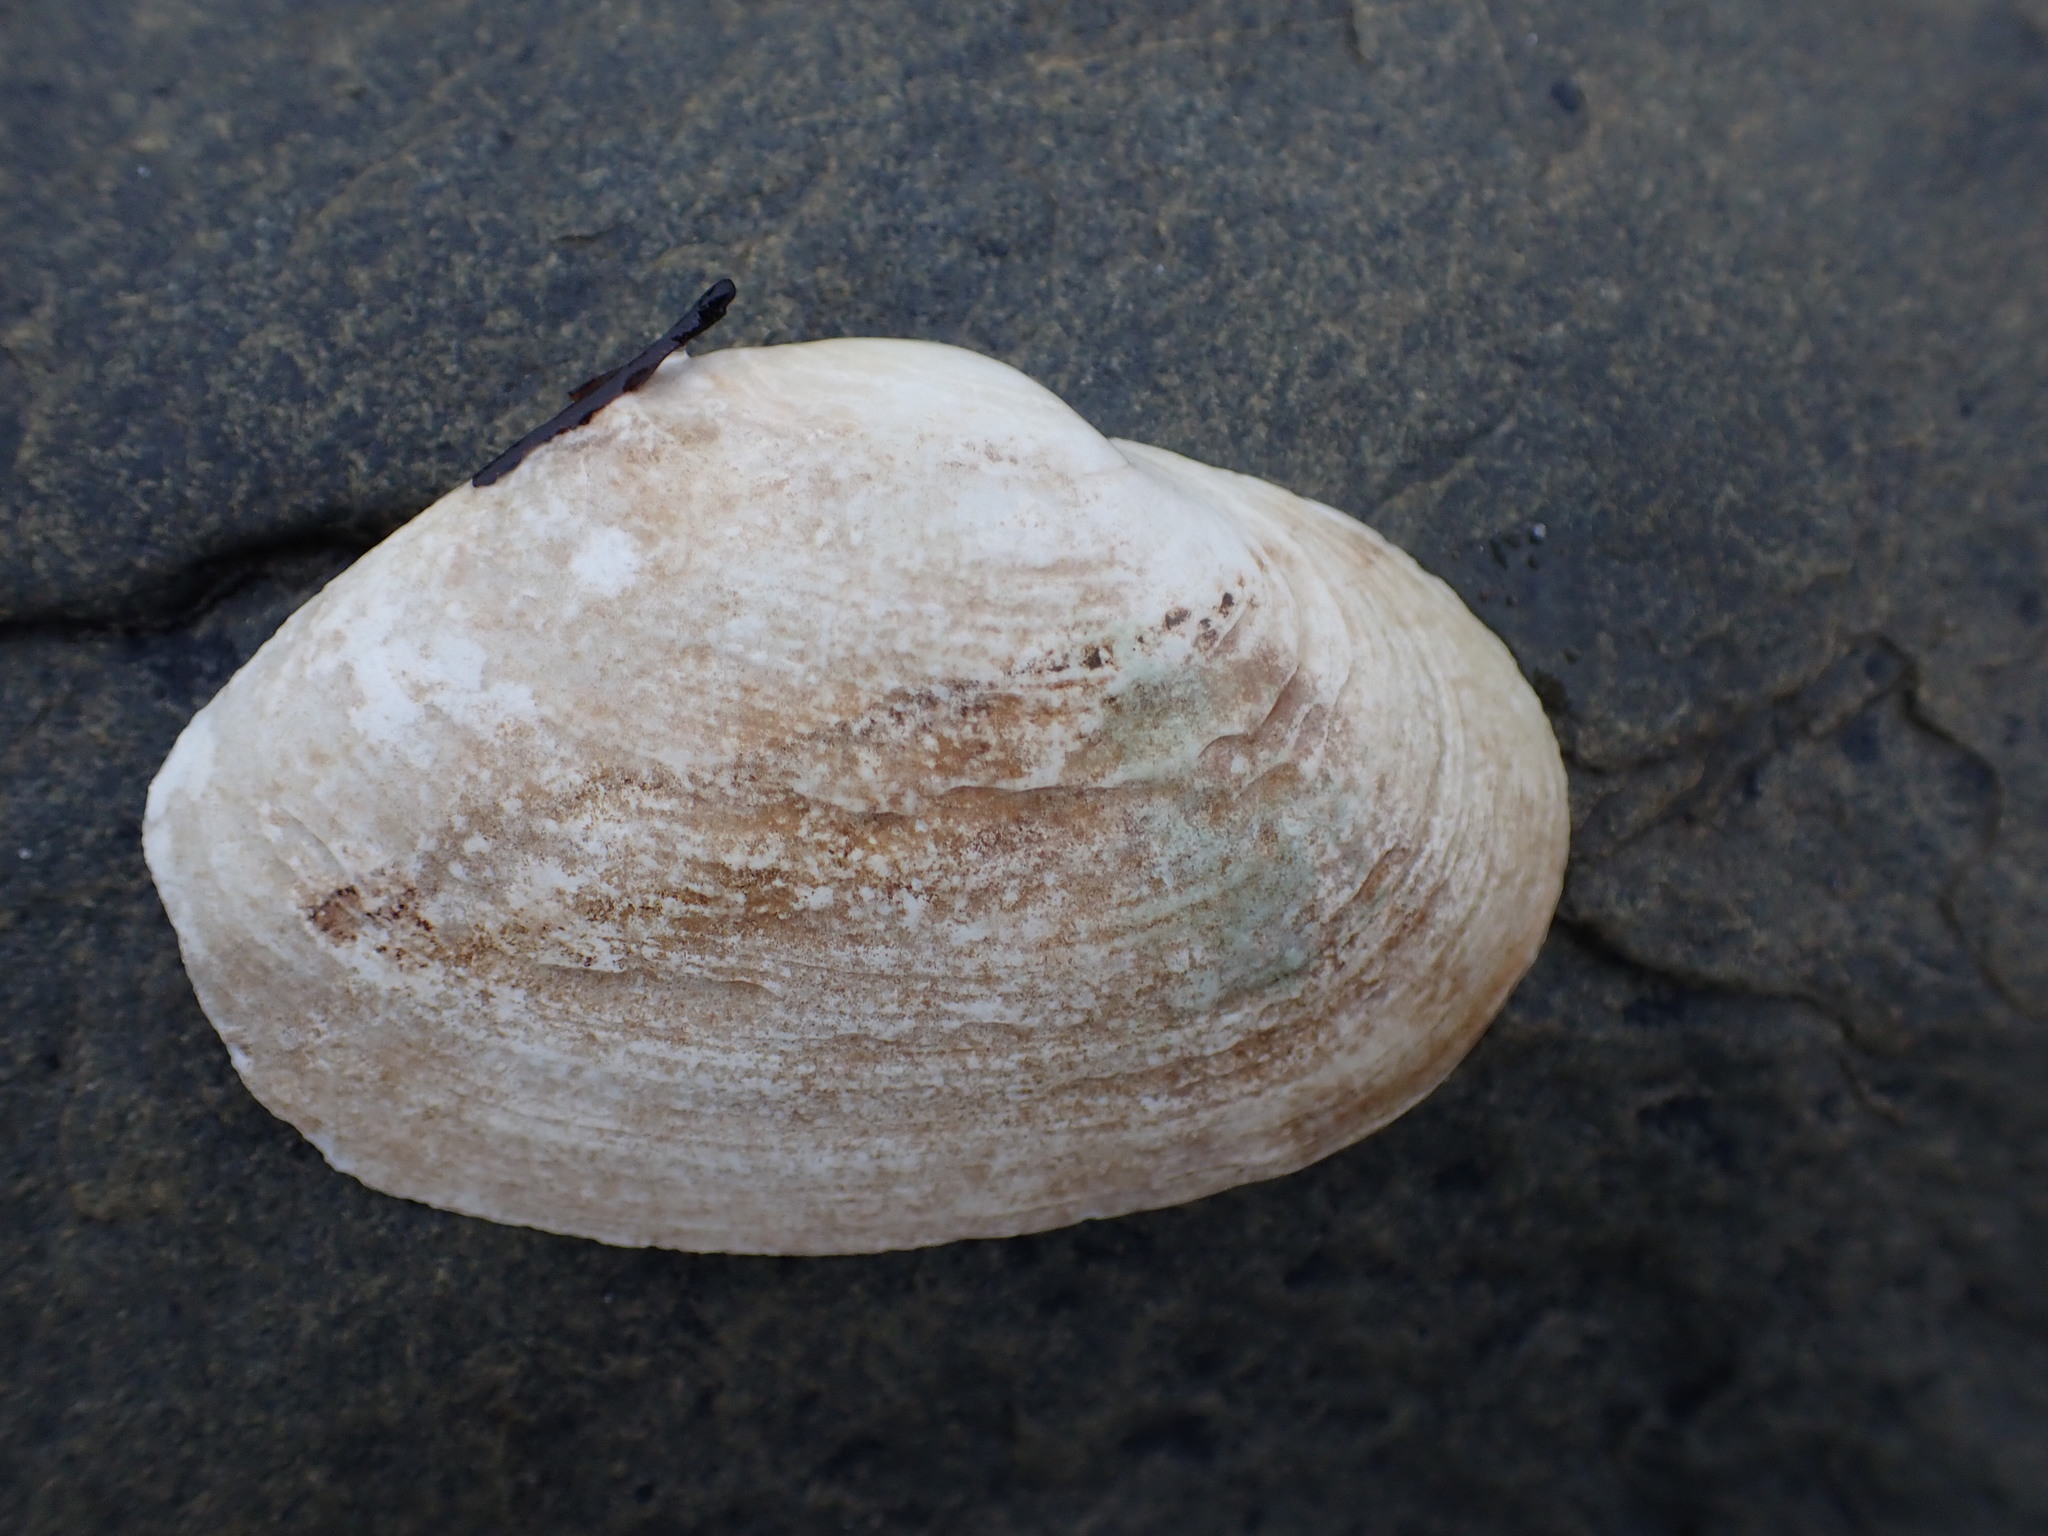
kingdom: Animalia
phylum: Mollusca
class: Bivalvia
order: Myida
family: Myidae
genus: Mya
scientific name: Mya arenaria
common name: Soft-shelled clam
